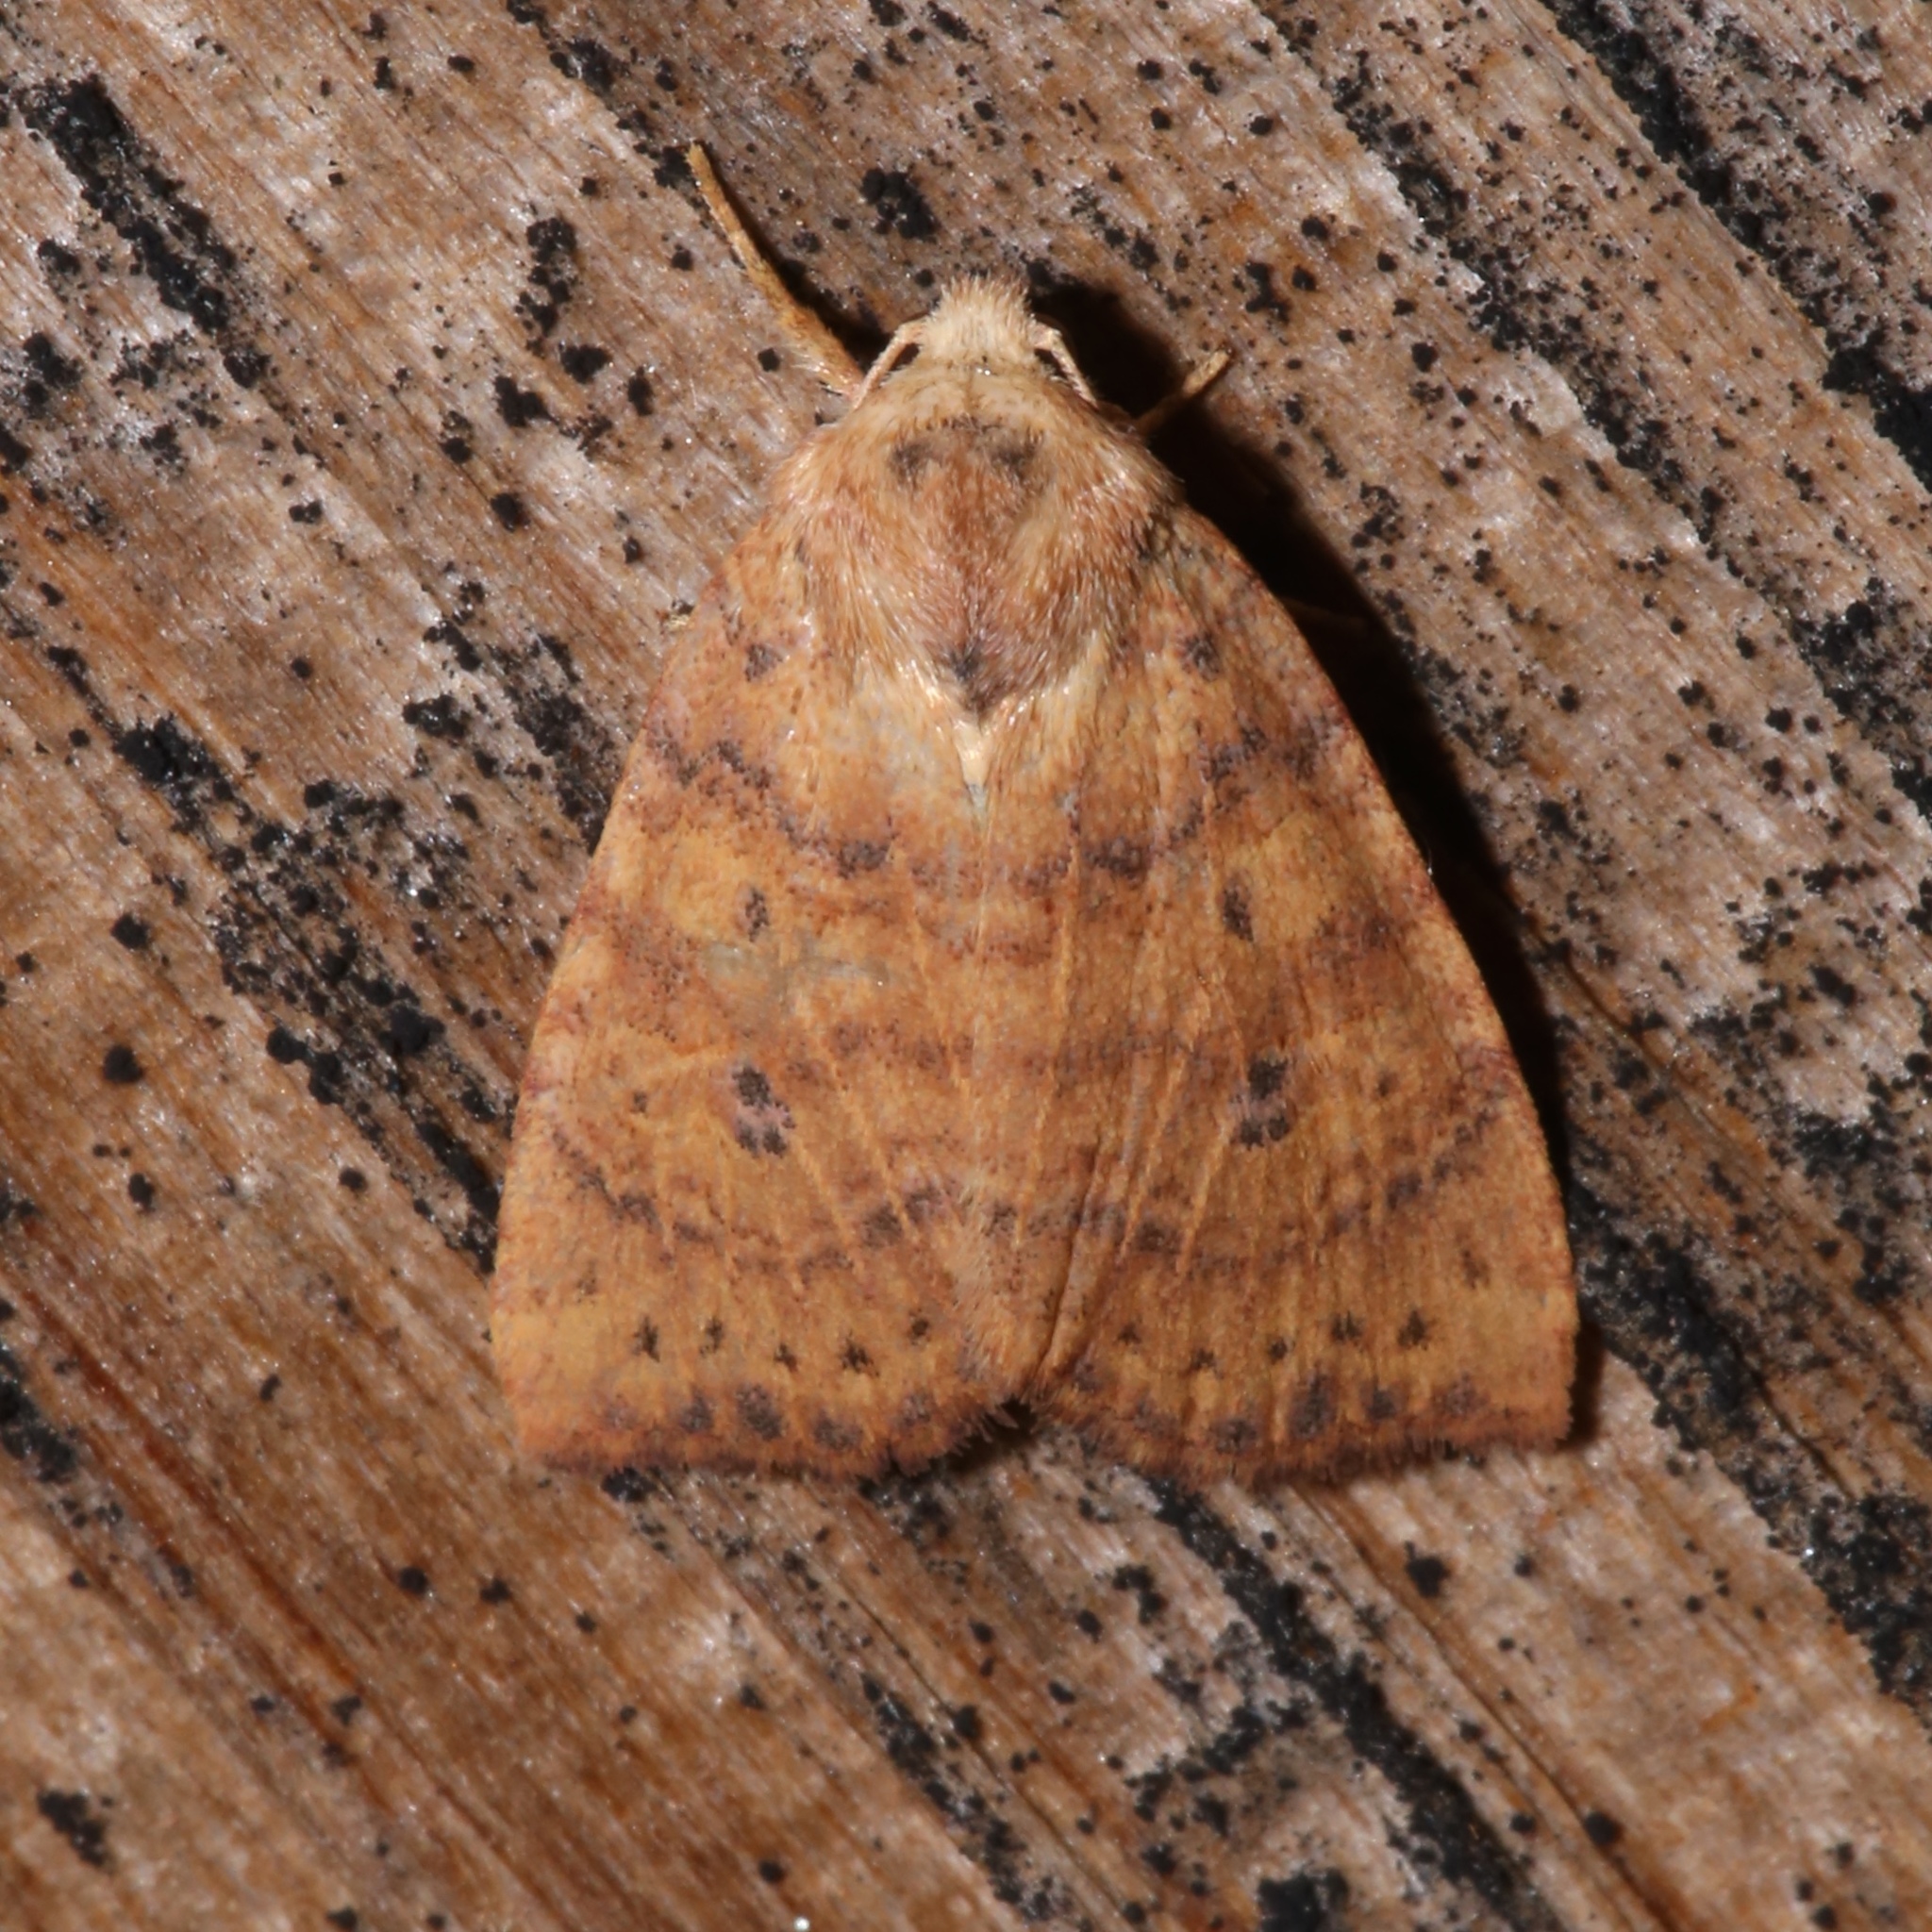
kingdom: Animalia
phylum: Arthropoda
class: Insecta
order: Lepidoptera
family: Noctuidae
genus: Anathix
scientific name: Anathix ralla
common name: Dotted sallow
